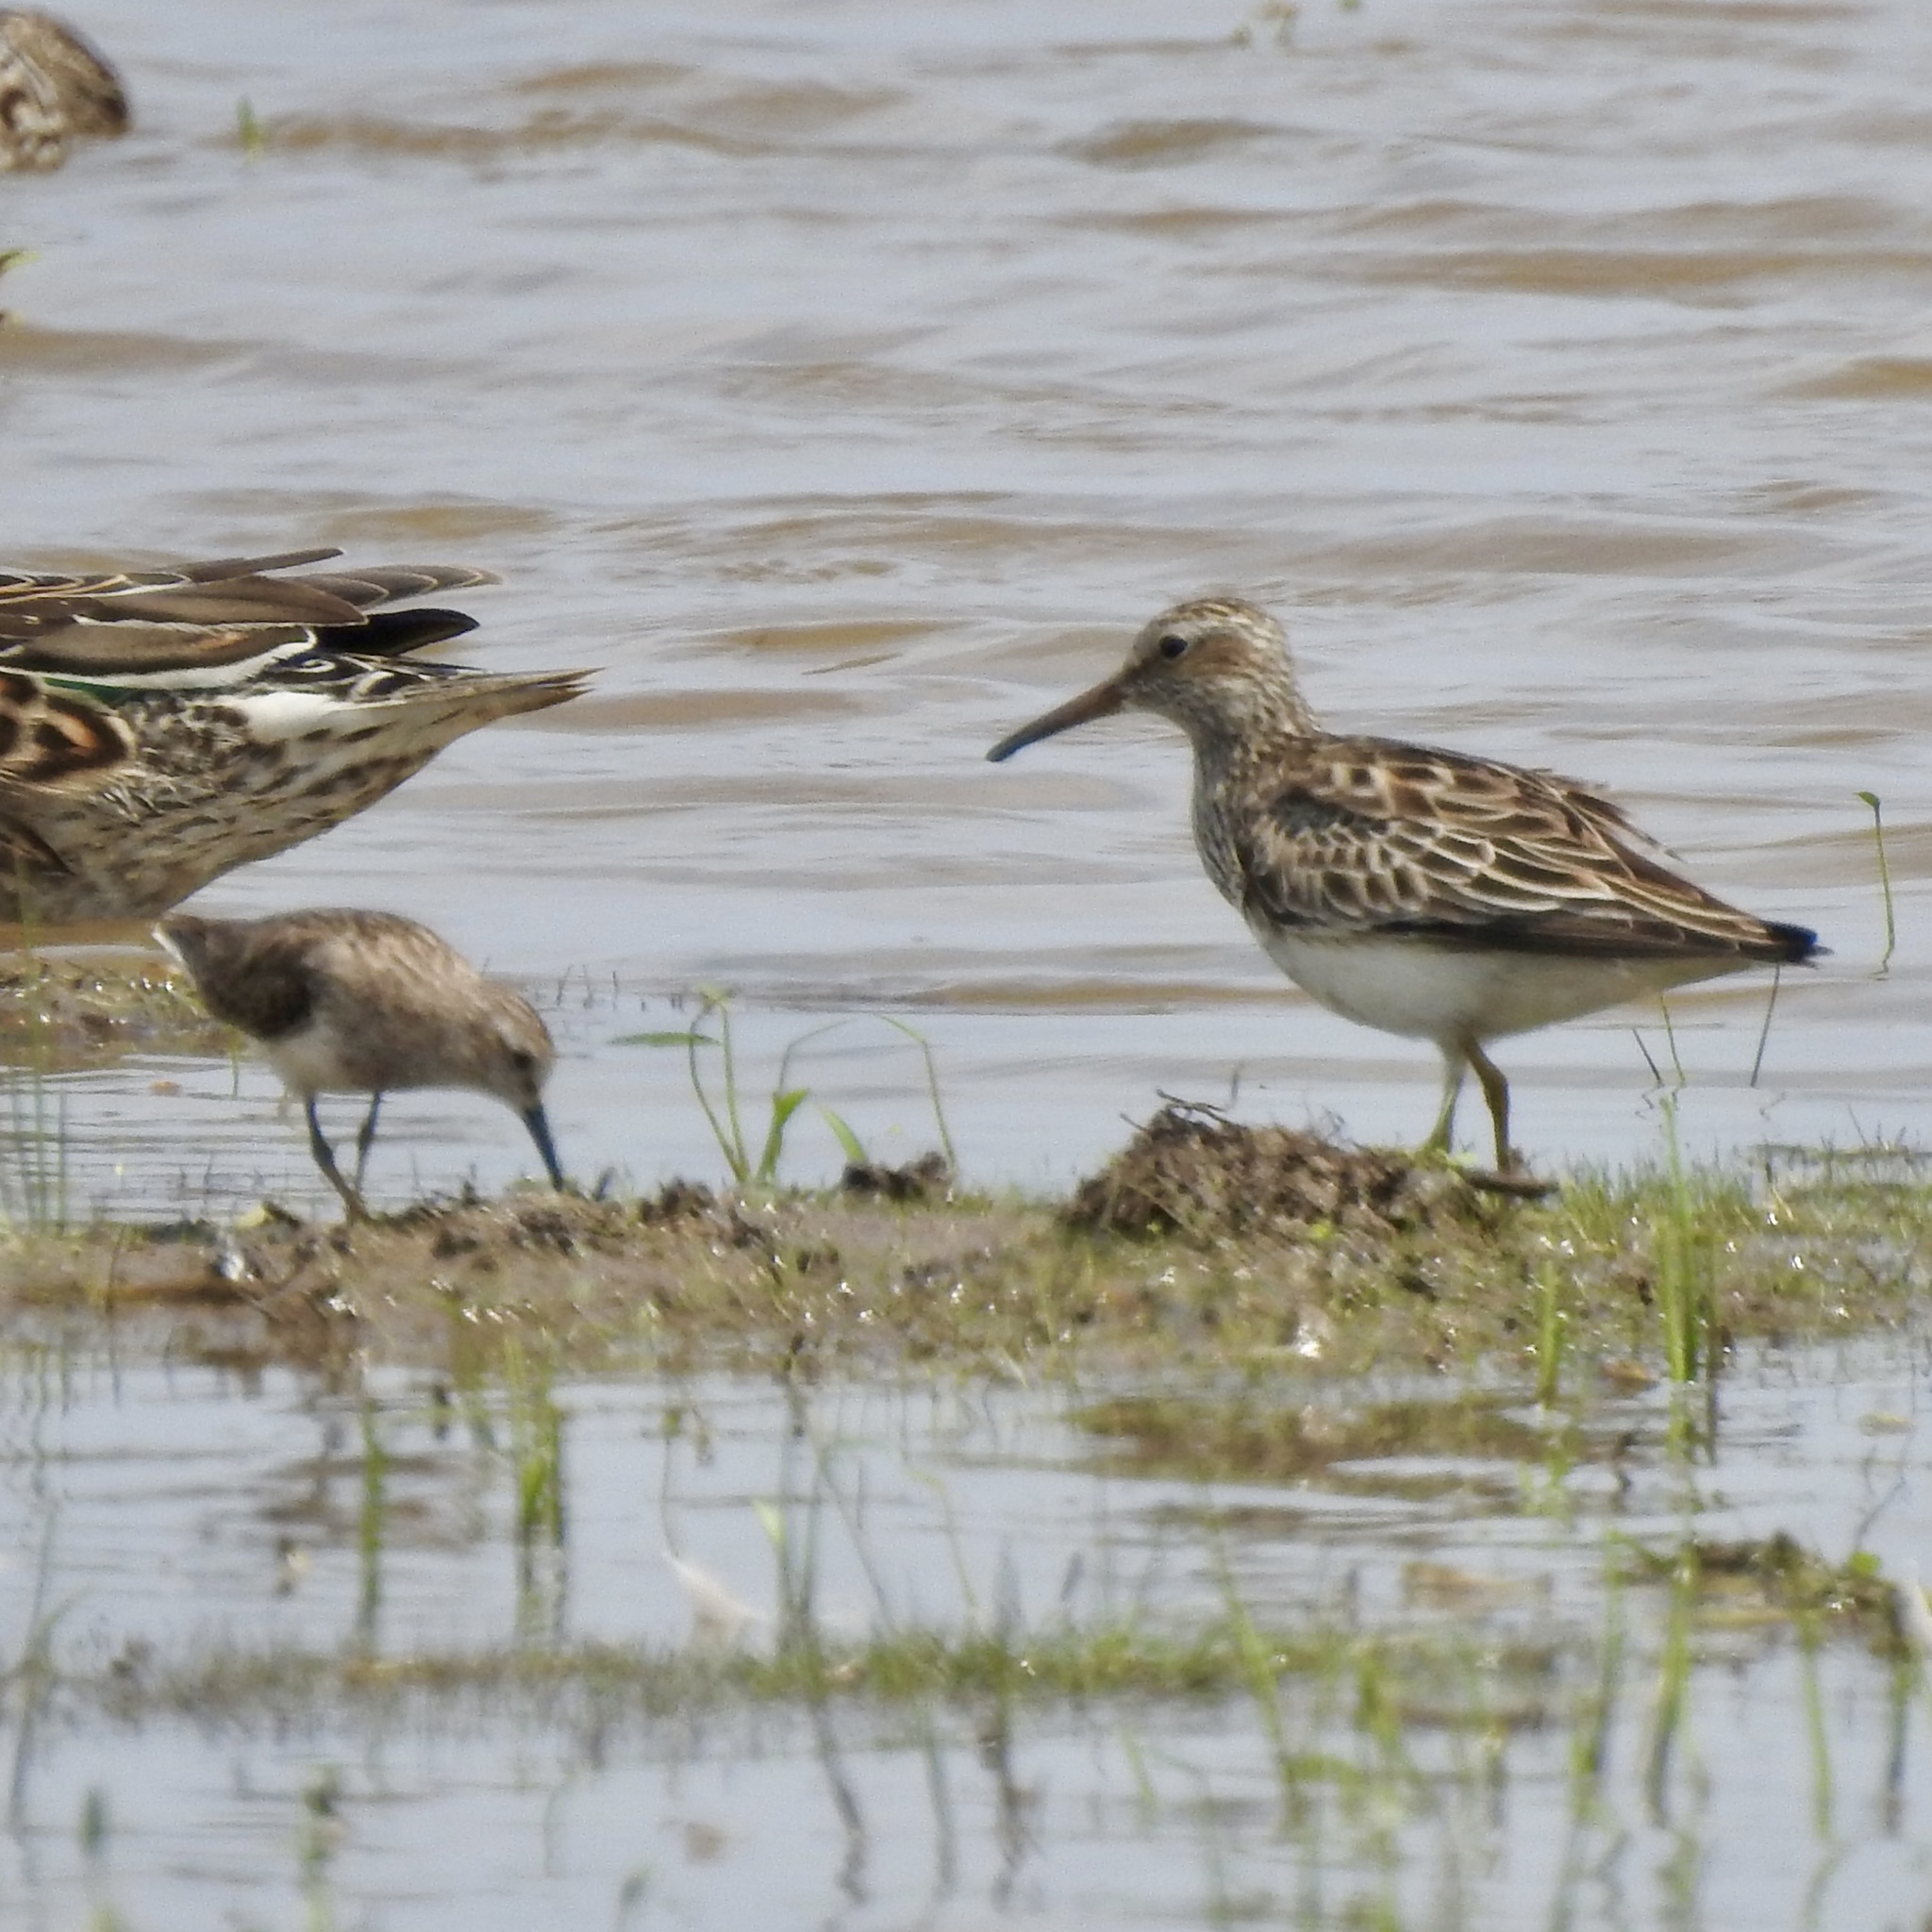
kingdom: Animalia
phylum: Chordata
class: Aves
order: Charadriiformes
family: Scolopacidae
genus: Calidris
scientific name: Calidris minutilla
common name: Least sandpiper
